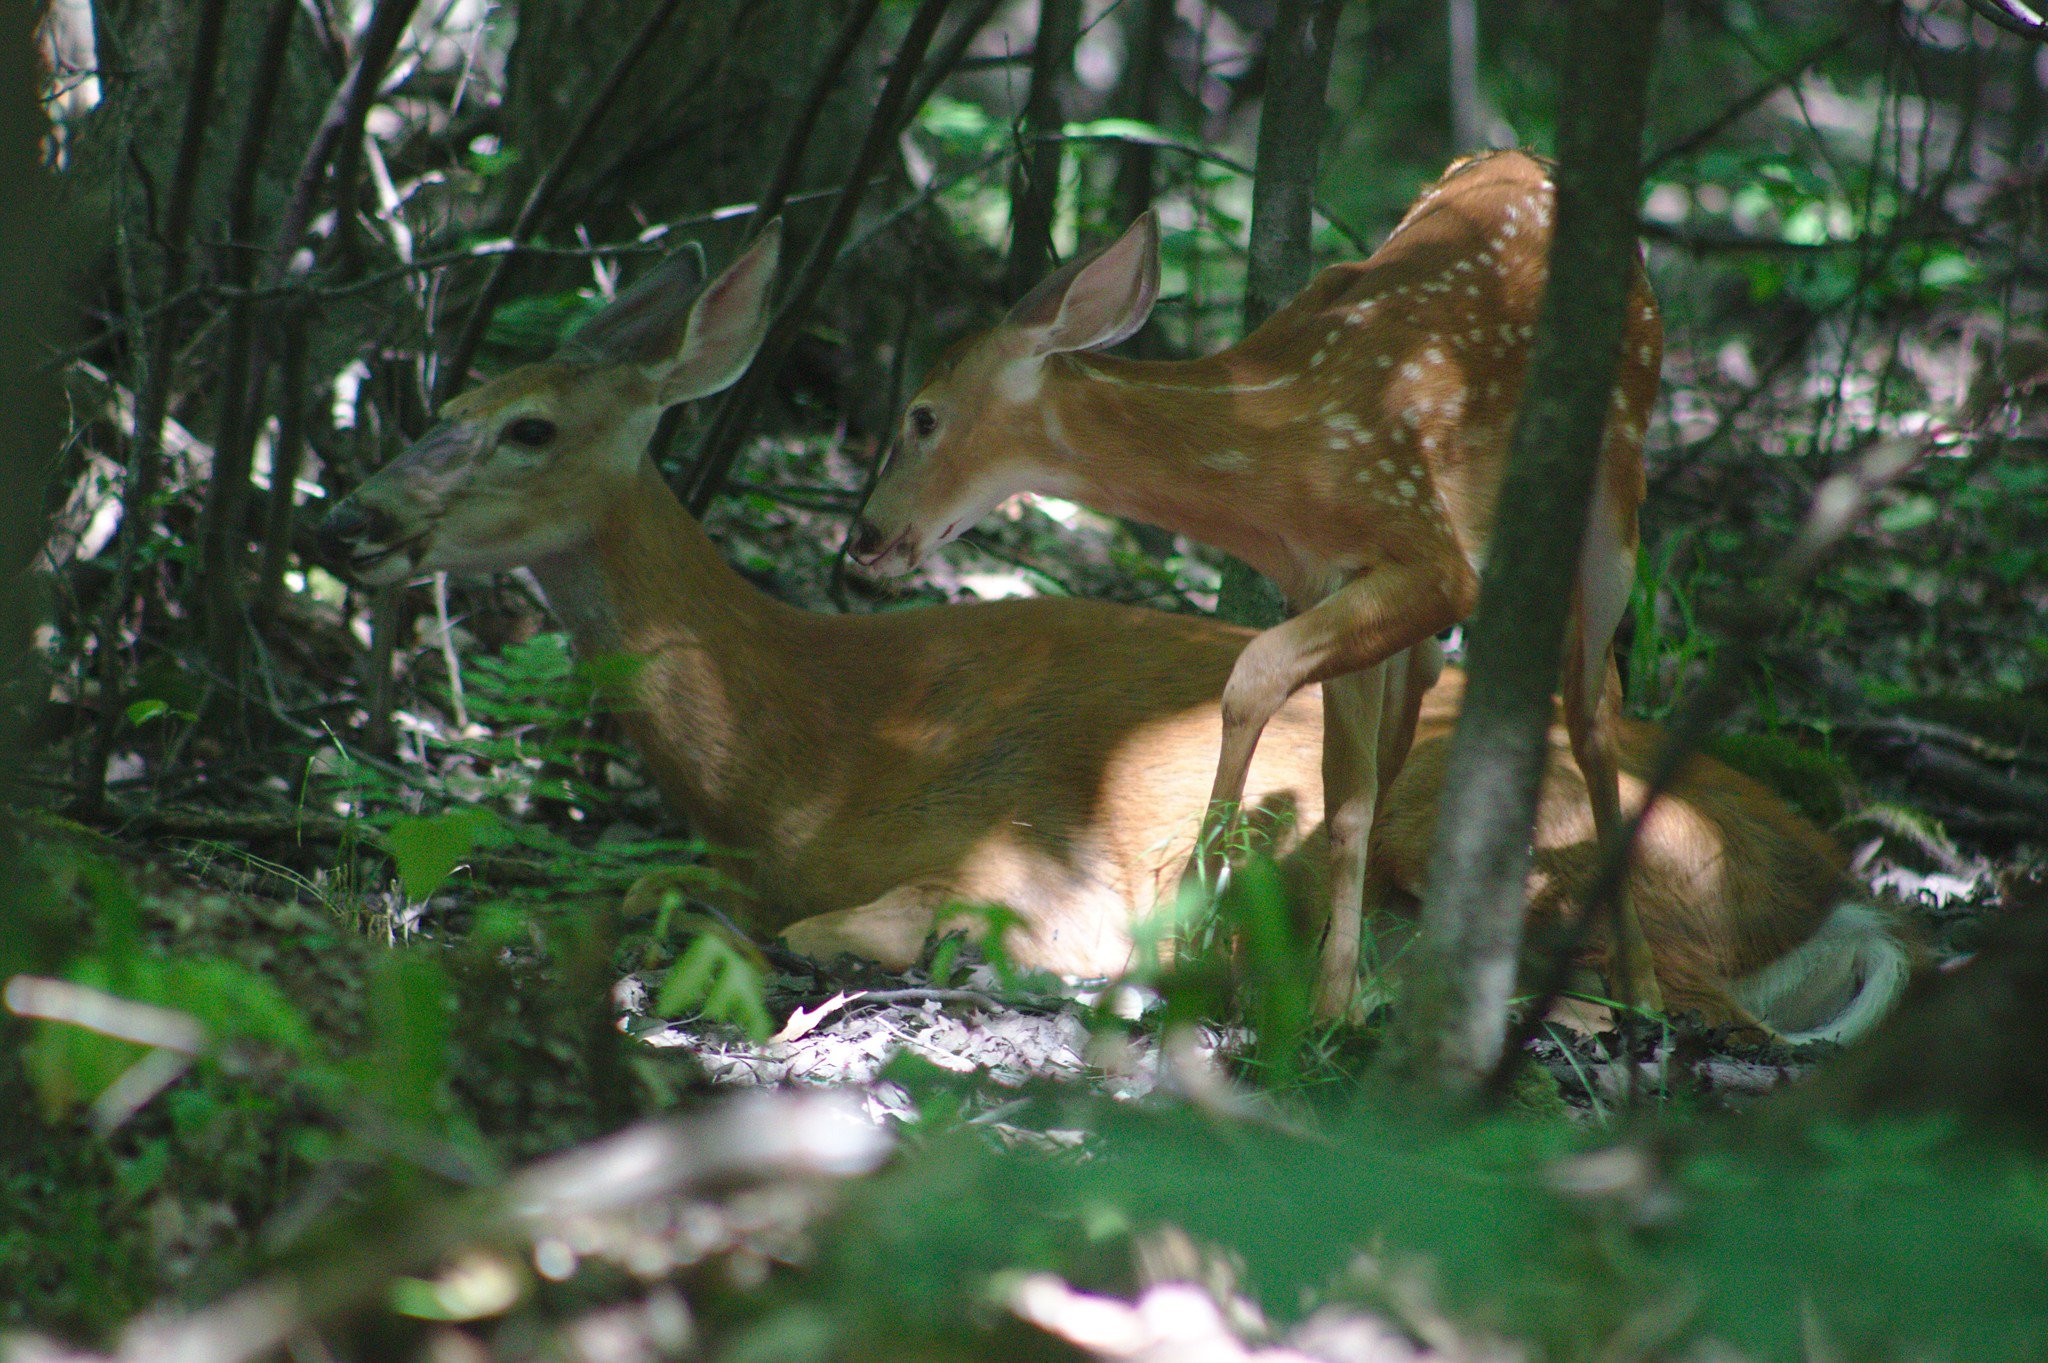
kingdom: Animalia
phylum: Chordata
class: Mammalia
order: Artiodactyla
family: Cervidae
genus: Odocoileus
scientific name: Odocoileus virginianus
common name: White-tailed deer
